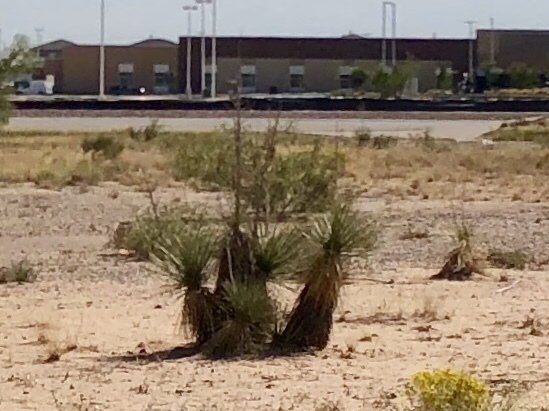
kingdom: Plantae
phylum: Tracheophyta
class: Liliopsida
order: Asparagales
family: Asparagaceae
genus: Yucca
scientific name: Yucca elata
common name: Palmella
